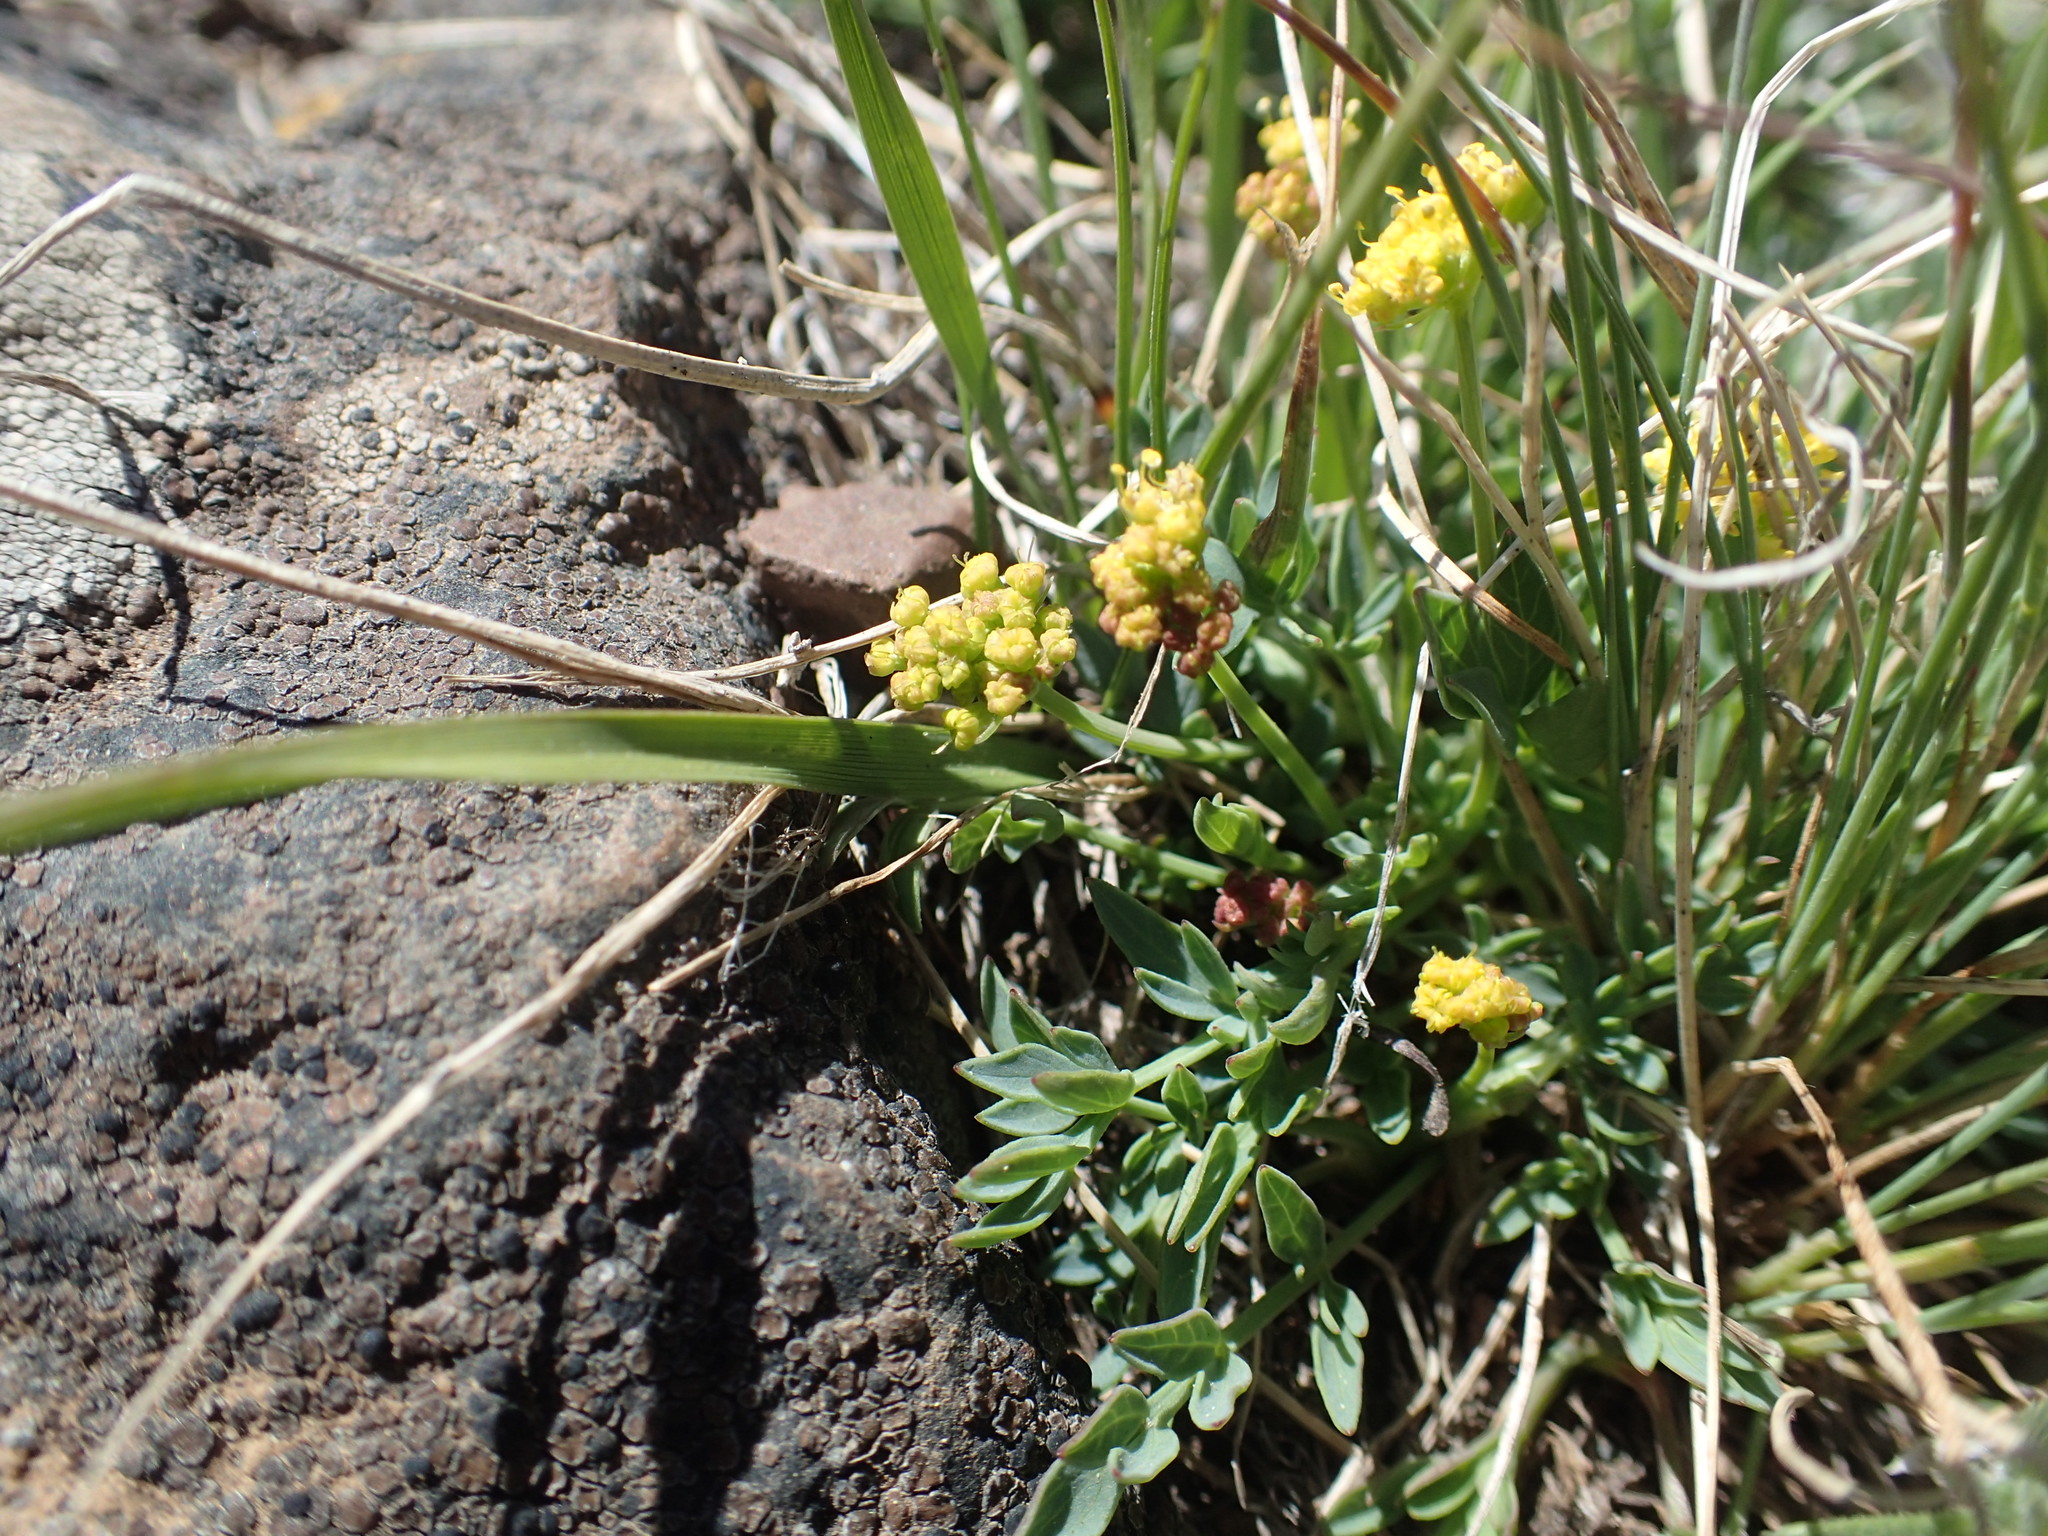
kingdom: Plantae
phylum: Tracheophyta
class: Magnoliopsida
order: Apiales
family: Apiaceae
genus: Lomatium
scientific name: Lomatium greenmanii
